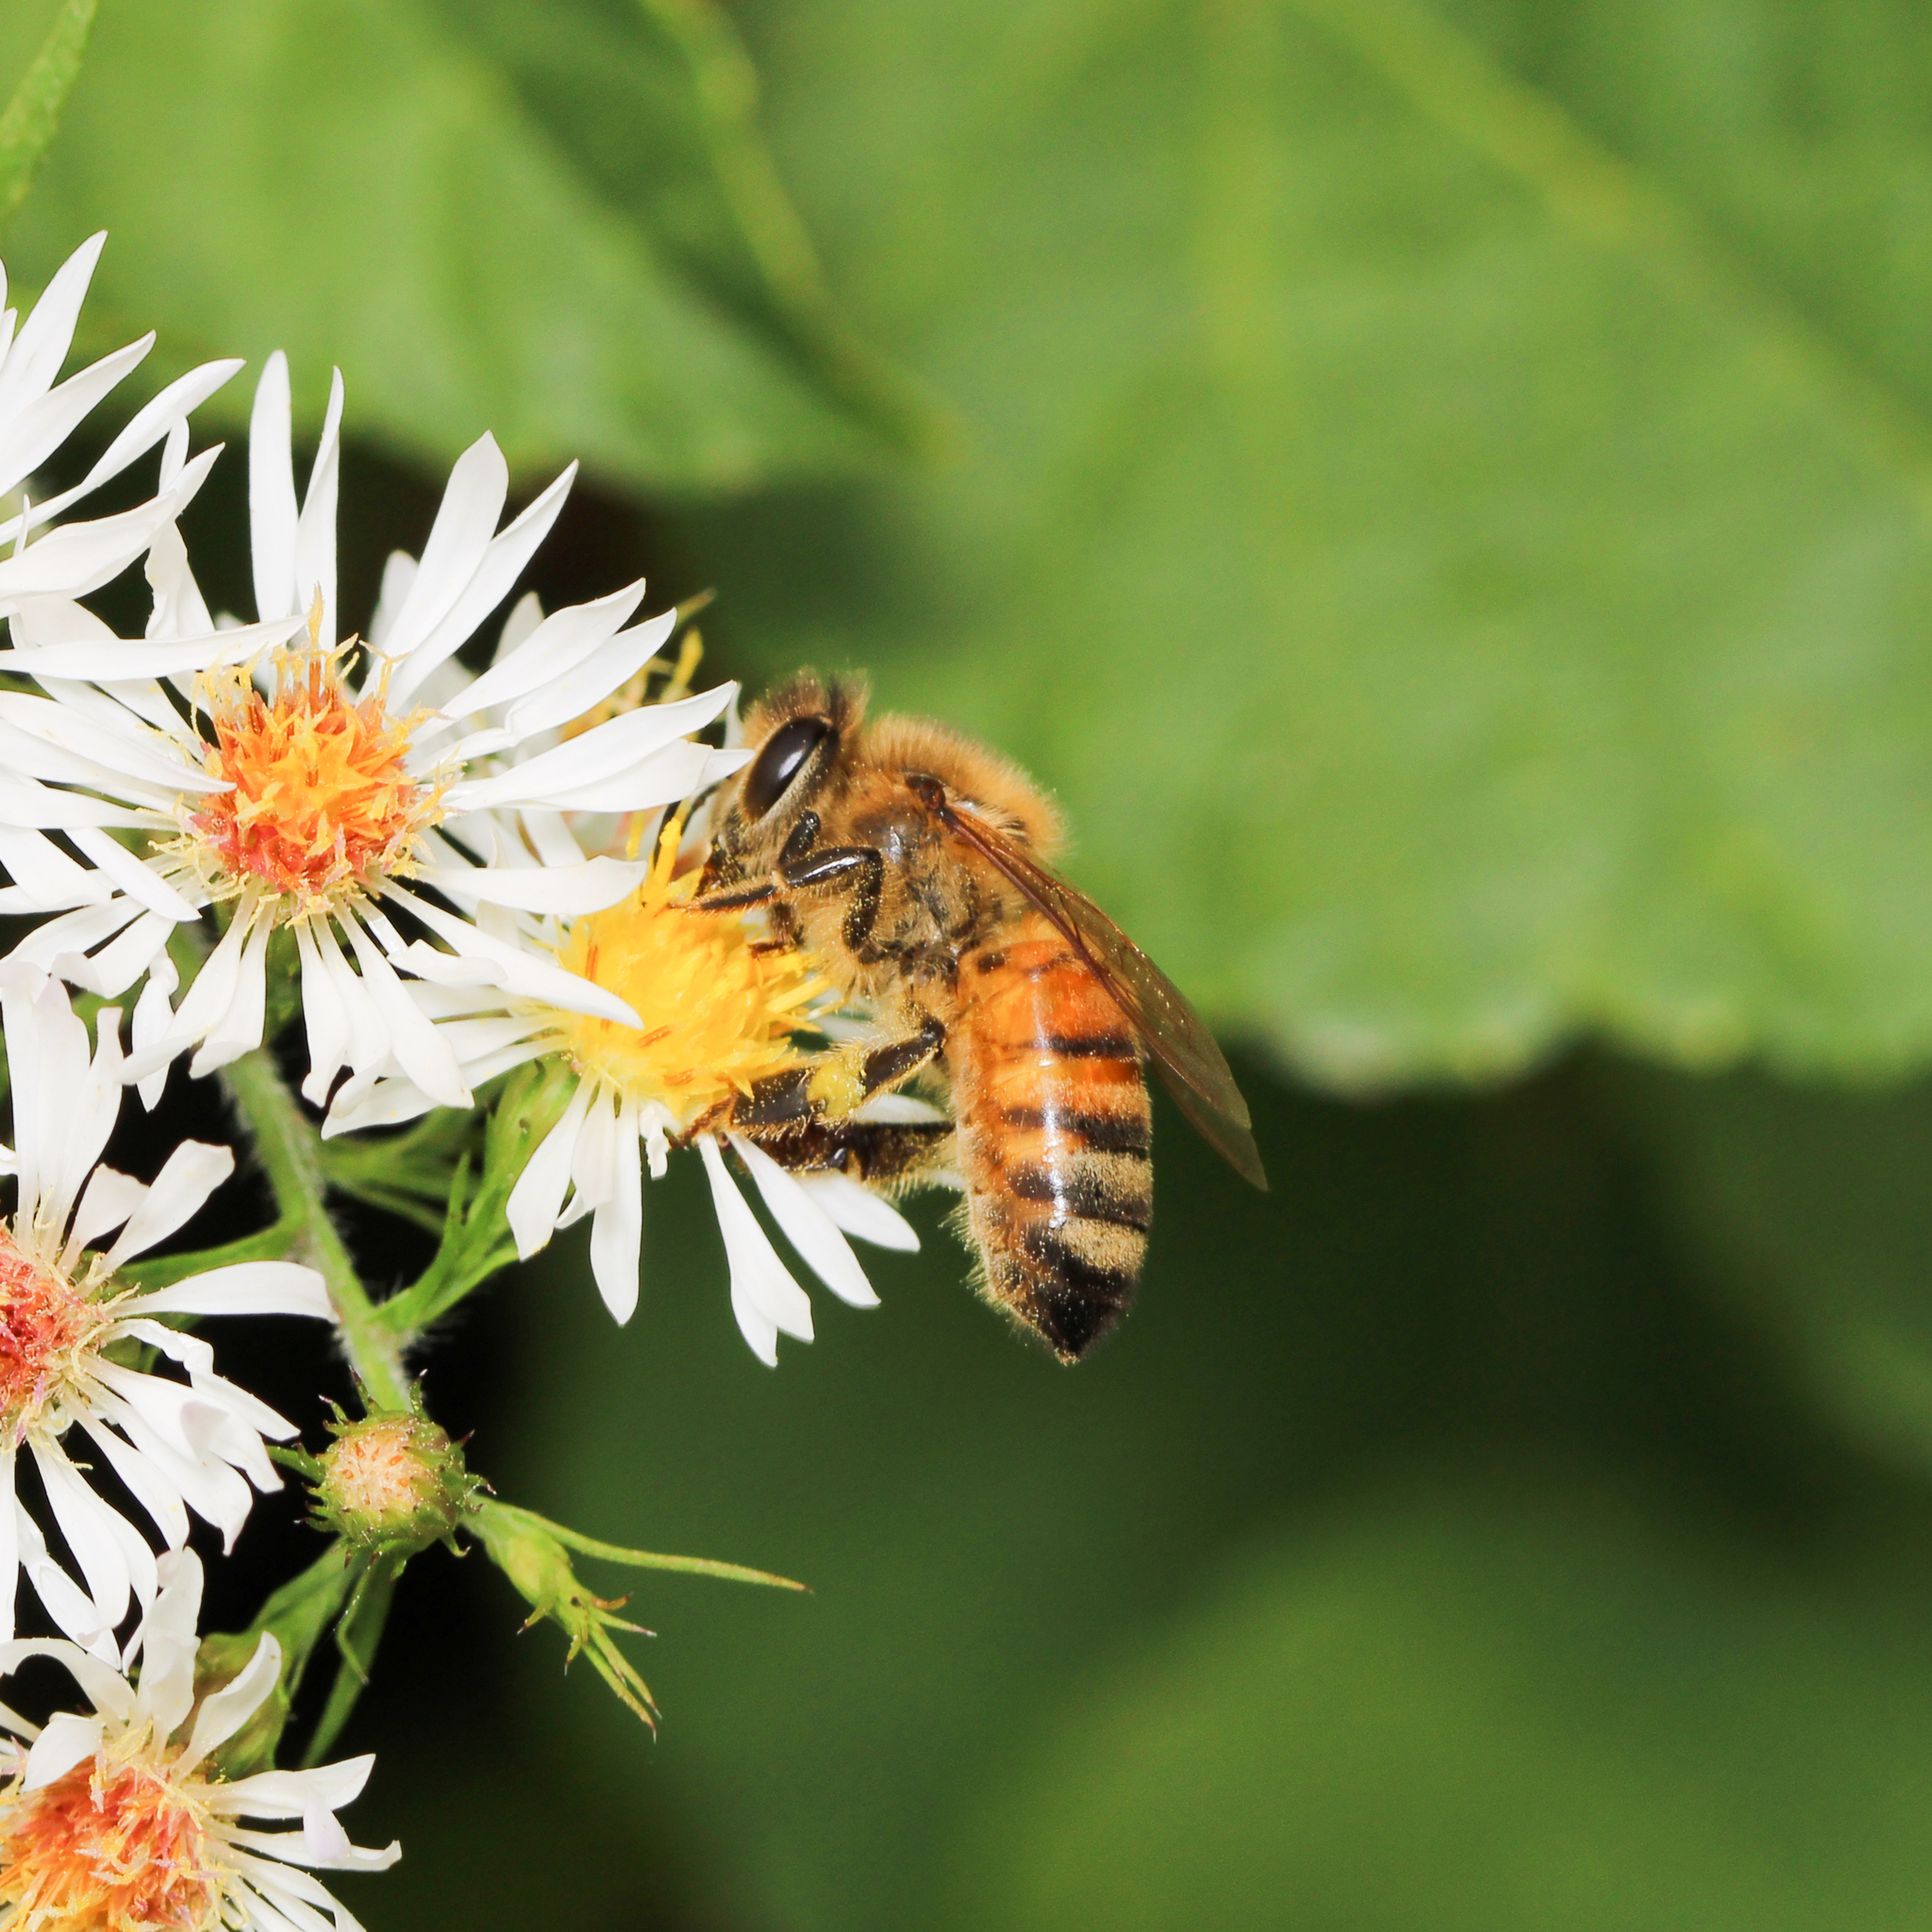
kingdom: Animalia
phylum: Arthropoda
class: Insecta
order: Hymenoptera
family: Apidae
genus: Apis
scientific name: Apis mellifera
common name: Honey bee
